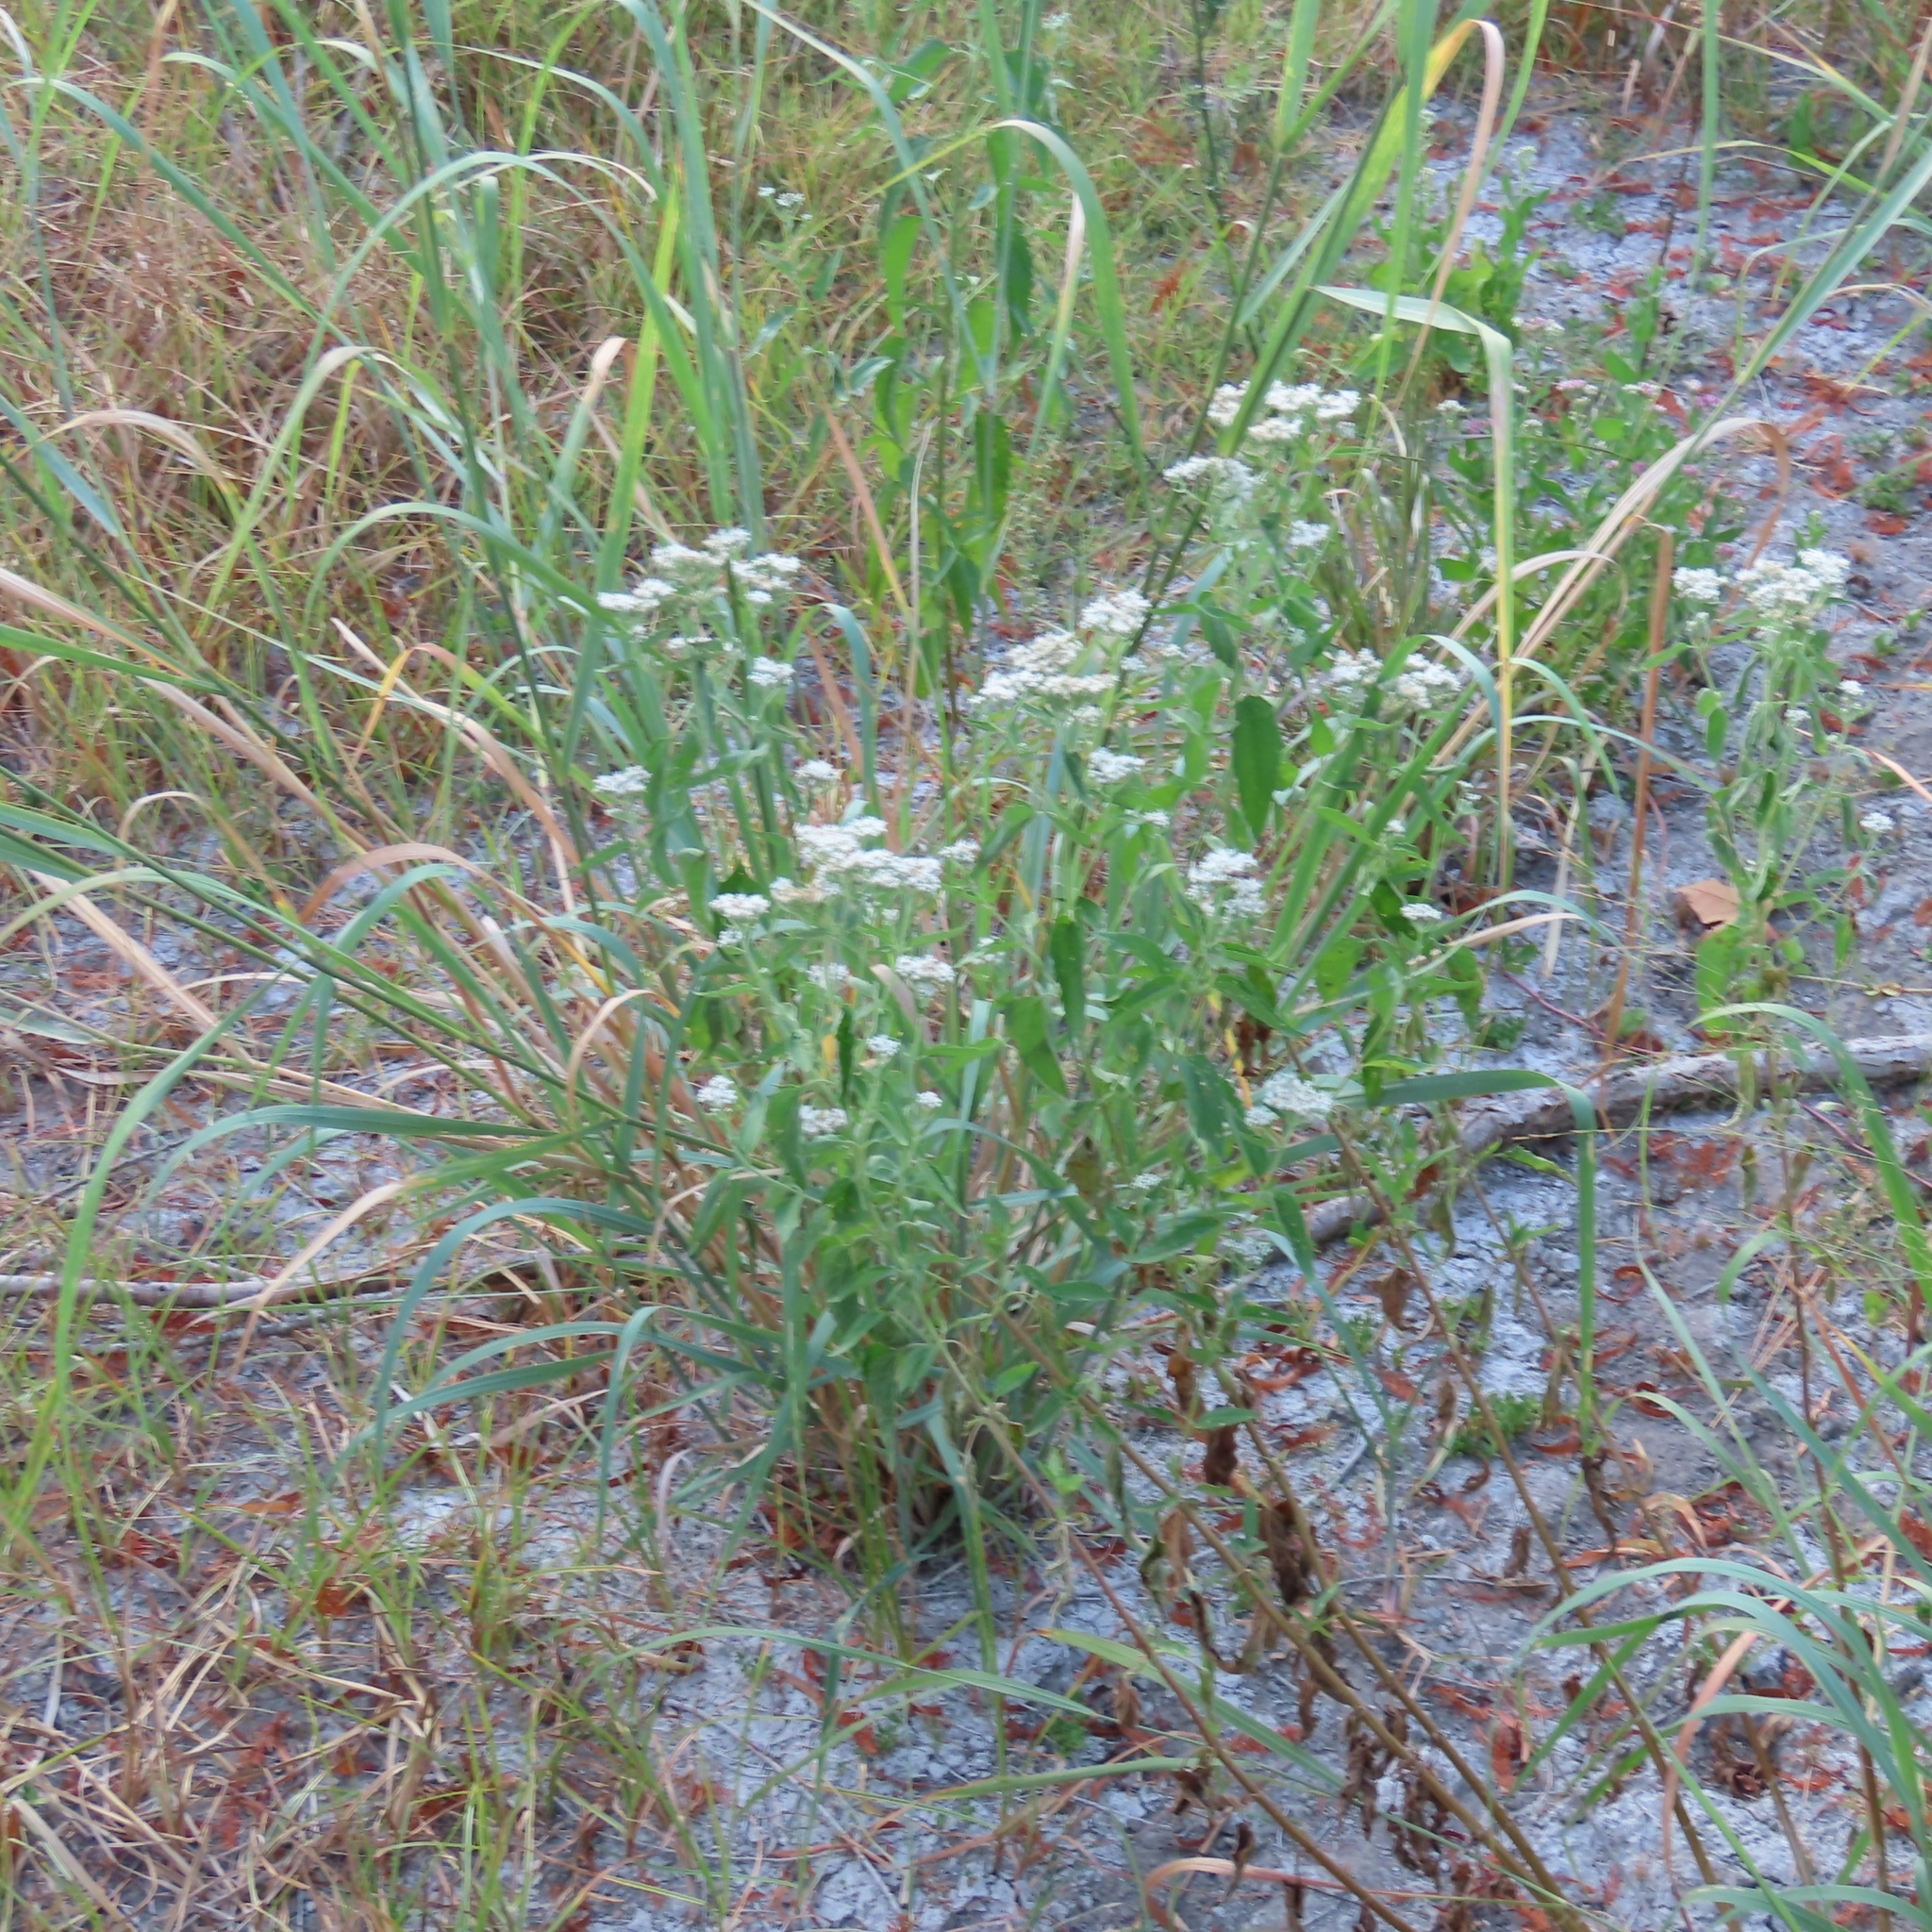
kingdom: Plantae
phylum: Tracheophyta
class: Magnoliopsida
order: Asterales
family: Asteraceae
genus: Eupatorium
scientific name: Eupatorium serotinum
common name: Late boneset
